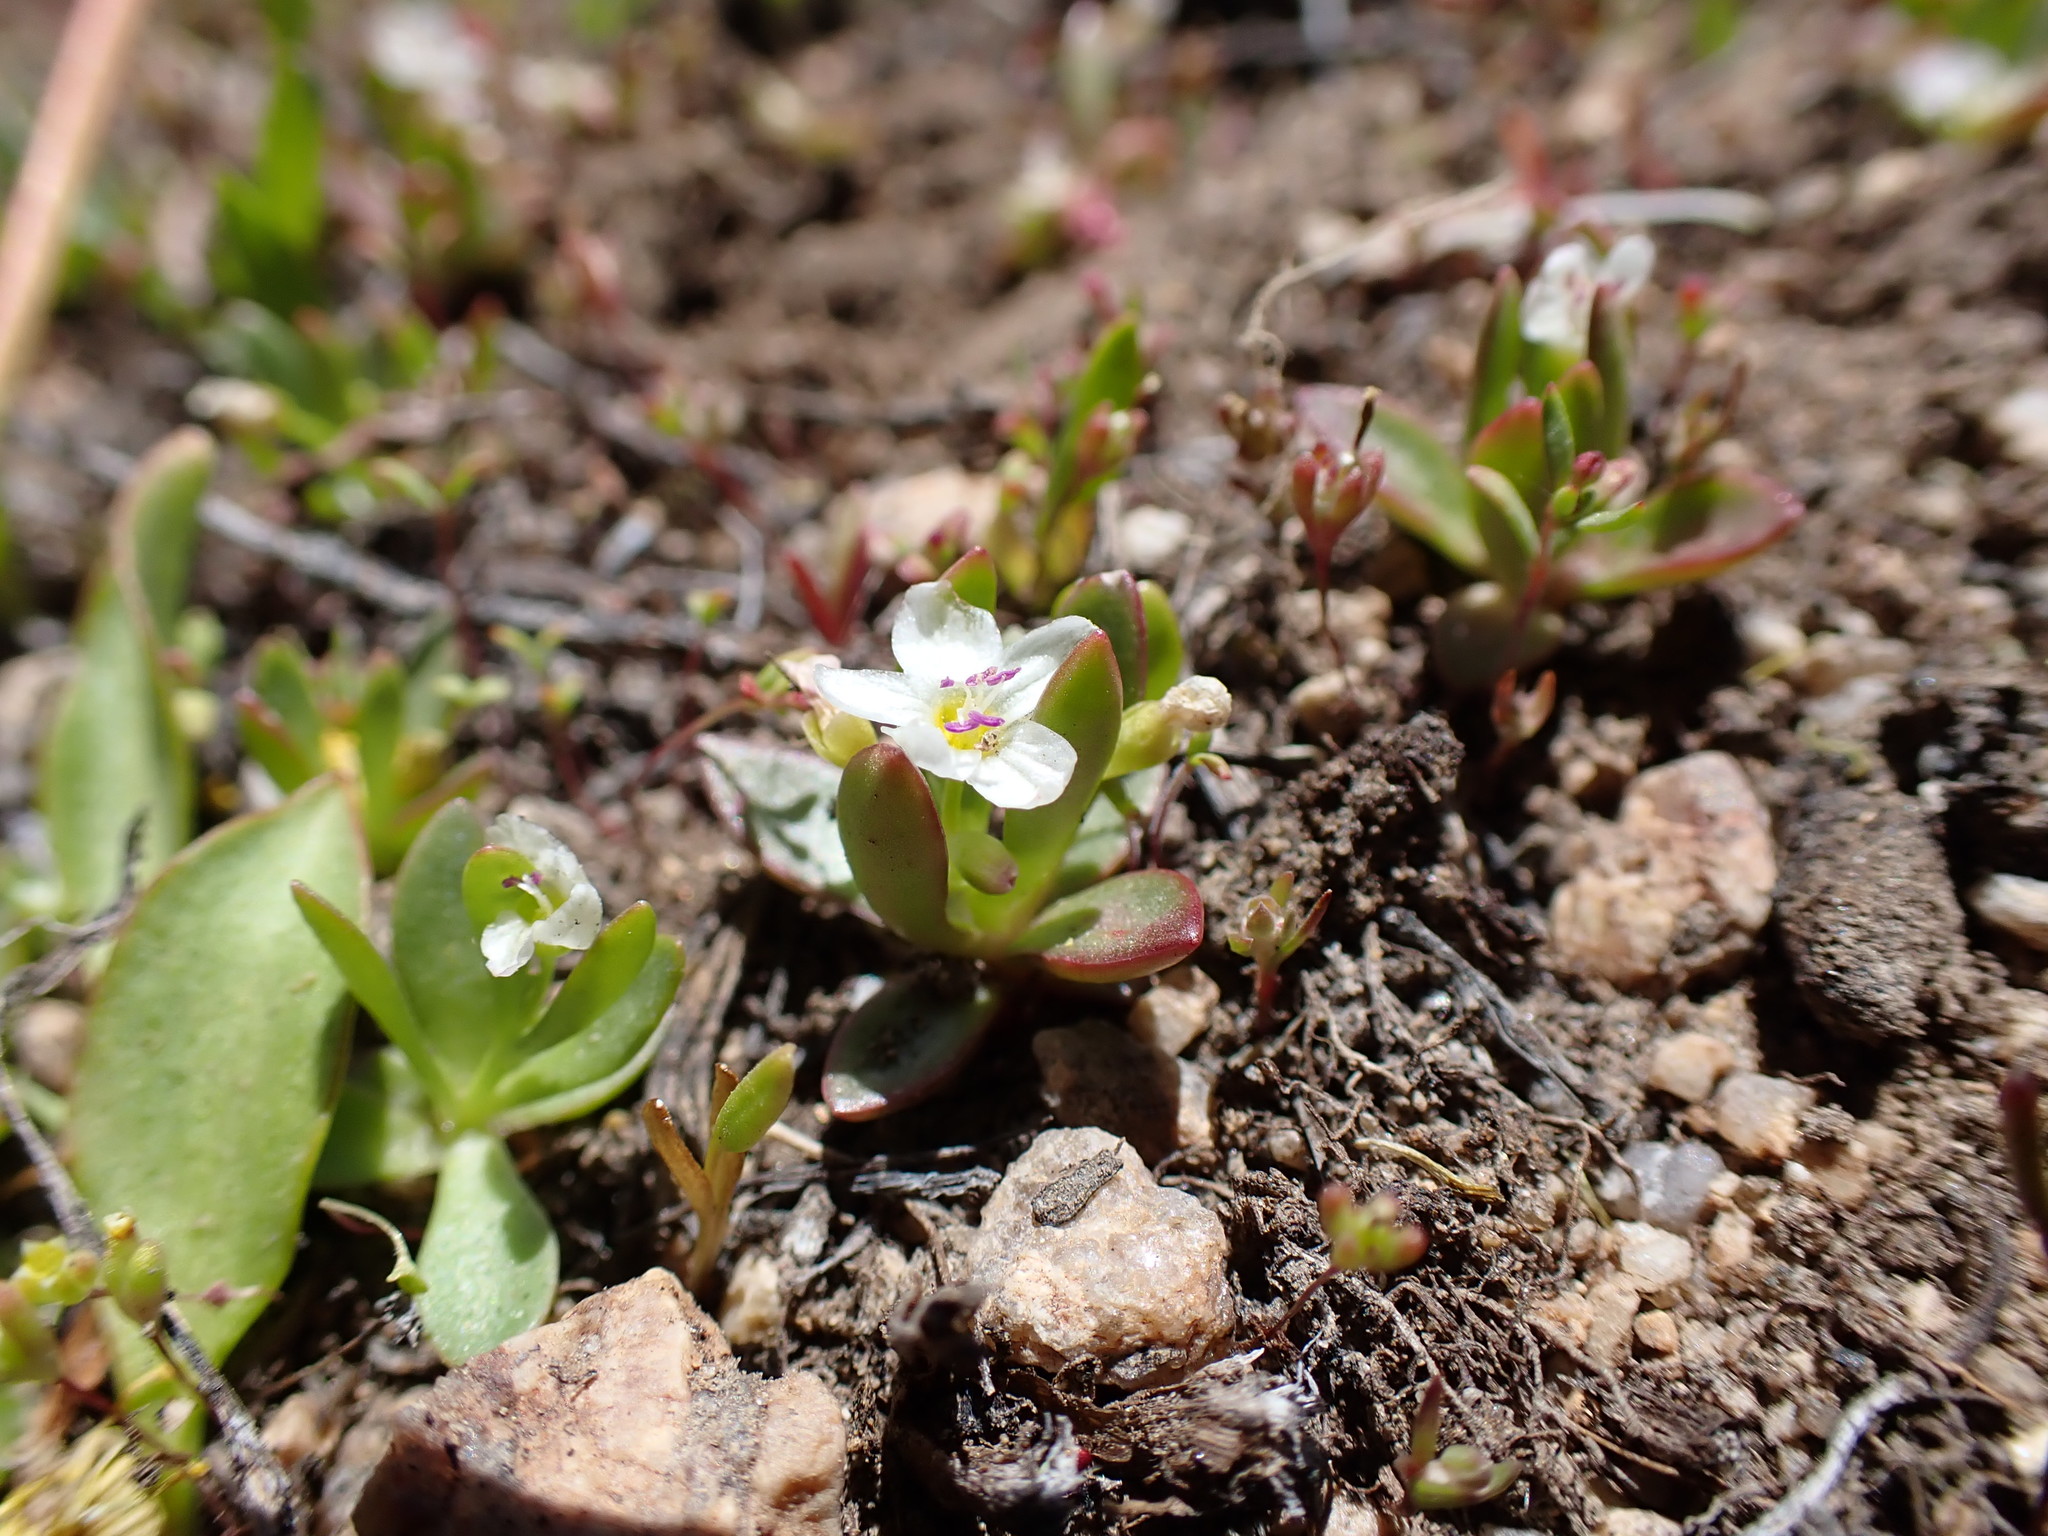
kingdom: Plantae
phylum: Tracheophyta
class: Magnoliopsida
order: Caryophyllales
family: Montiaceae
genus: Montia
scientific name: Montia chamissoi
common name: Chamisso's candyflower
